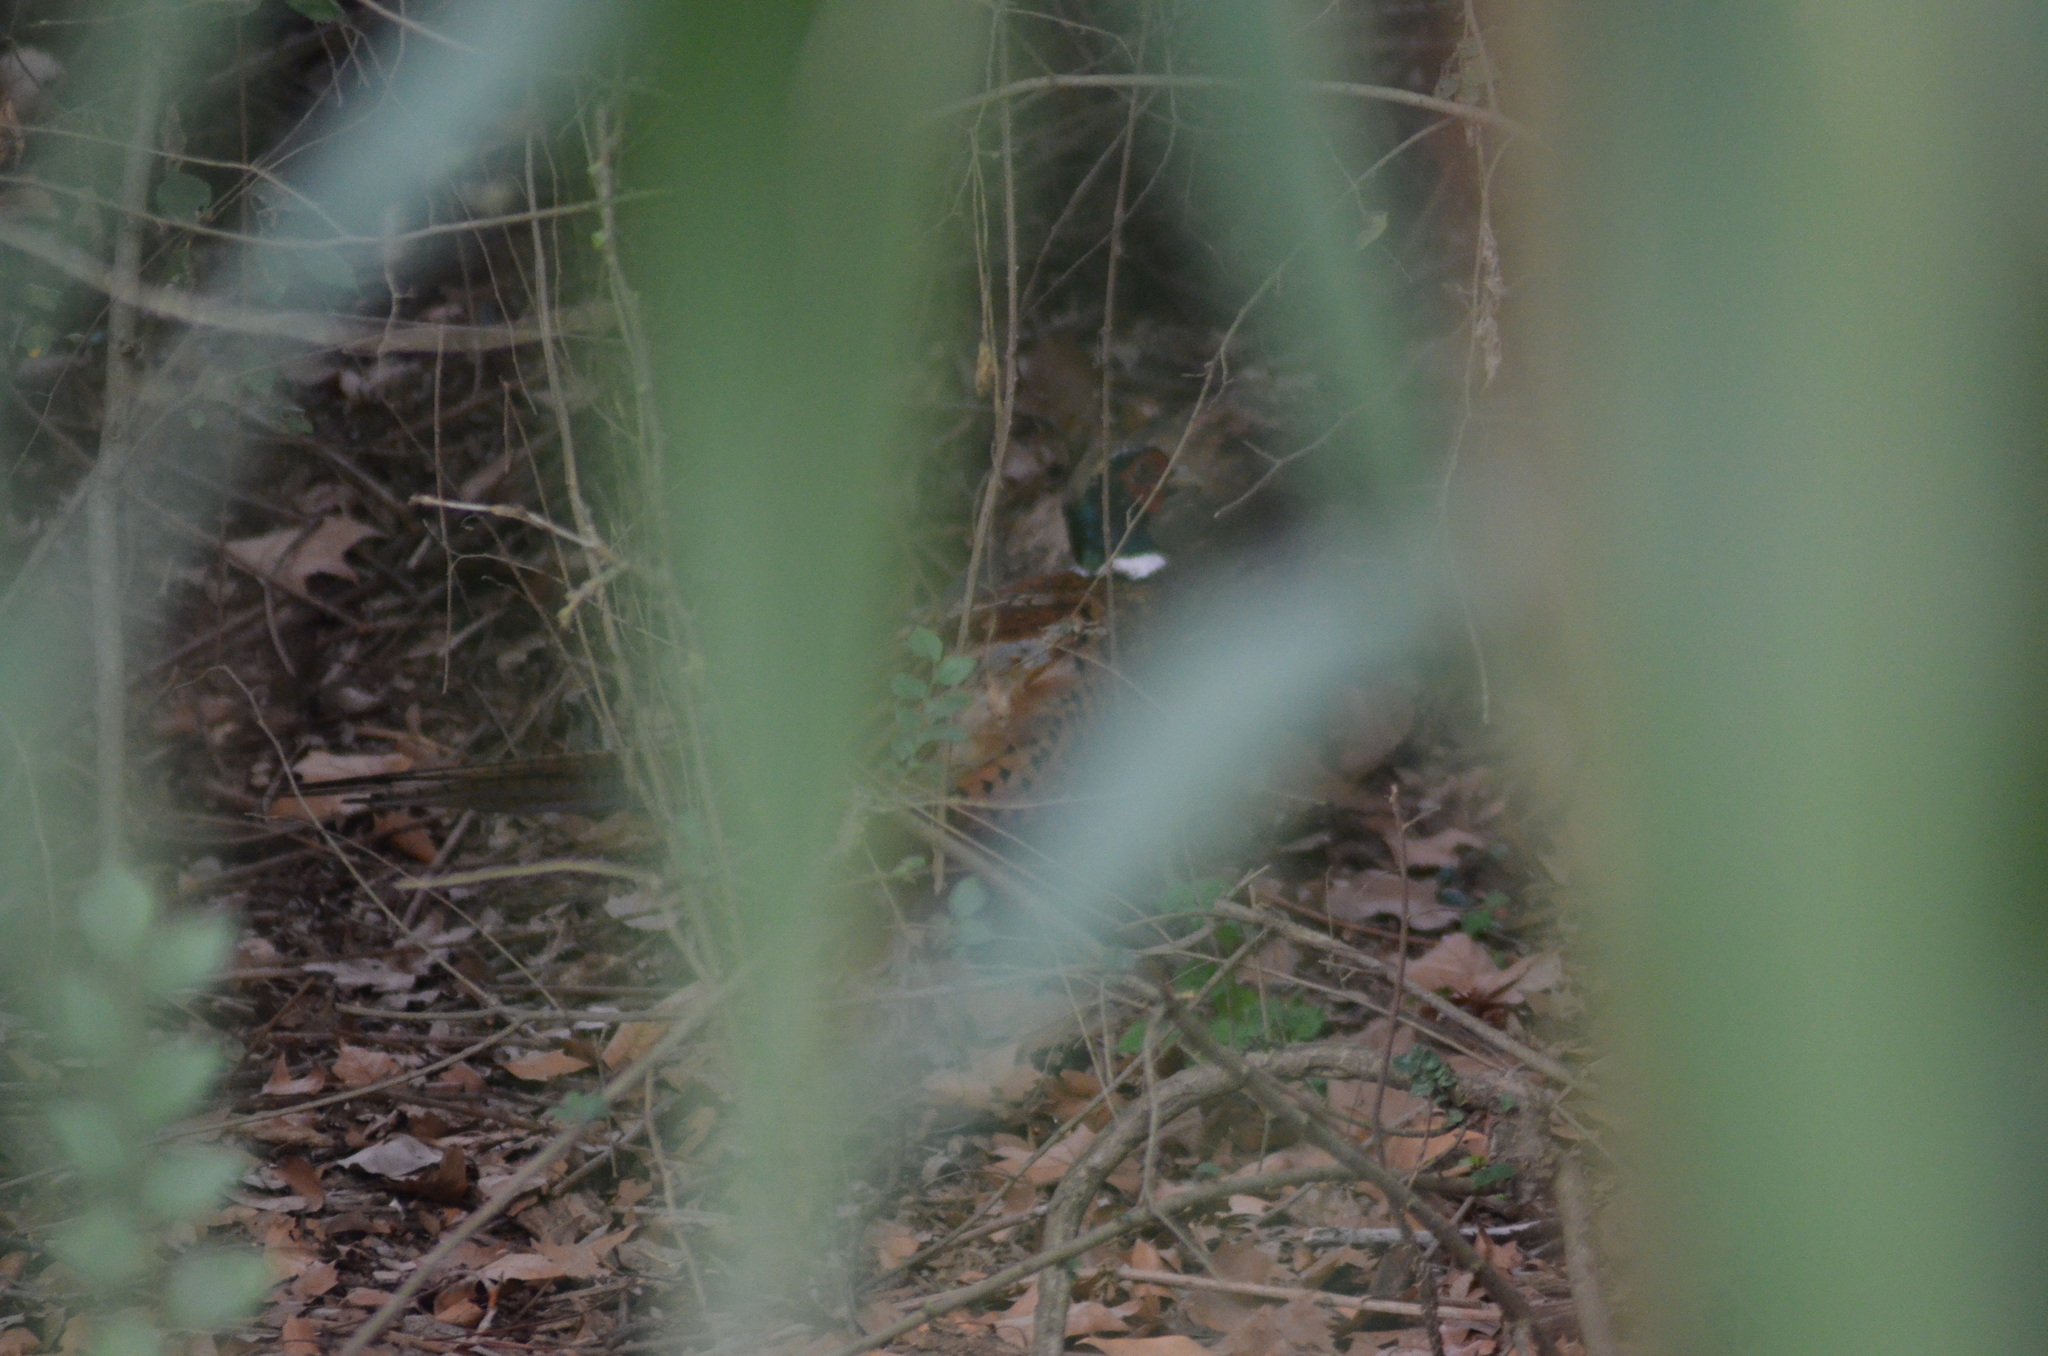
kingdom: Animalia
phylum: Chordata
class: Aves
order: Galliformes
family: Phasianidae
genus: Phasianus
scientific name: Phasianus colchicus
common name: Common pheasant
